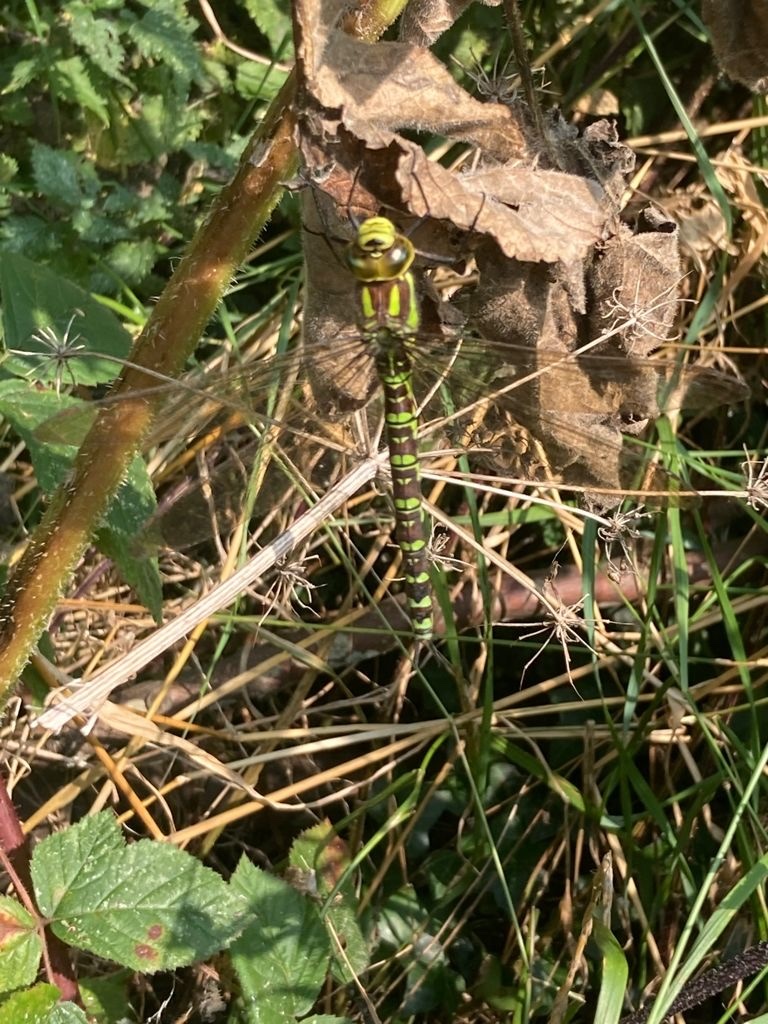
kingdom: Animalia
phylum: Arthropoda
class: Insecta
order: Odonata
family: Aeshnidae
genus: Aeshna
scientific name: Aeshna cyanea
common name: Southern hawker
